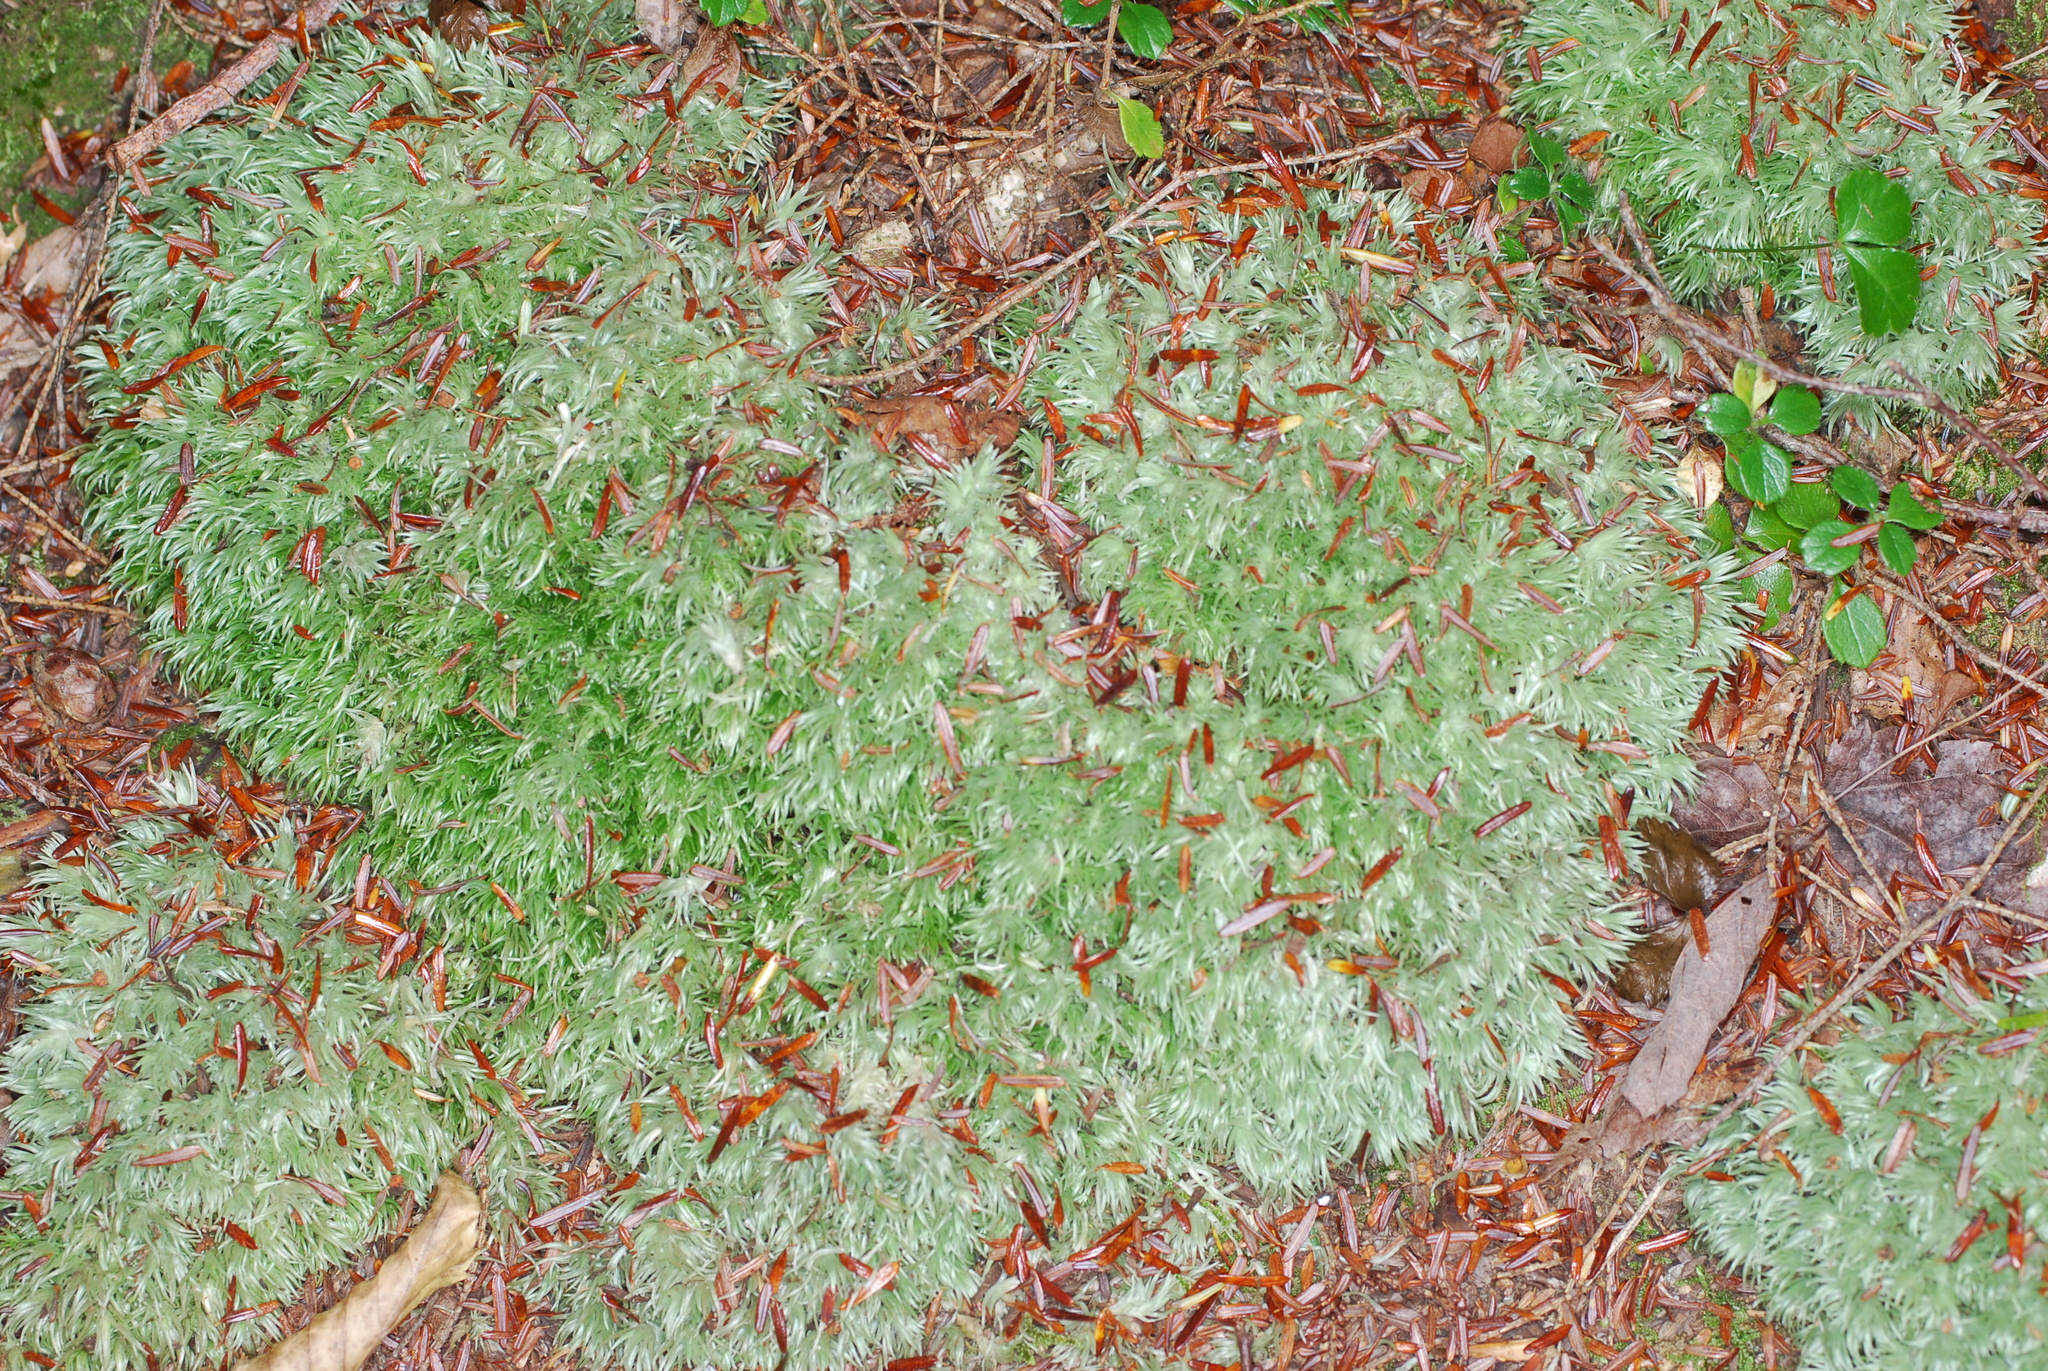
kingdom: Plantae
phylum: Bryophyta
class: Bryopsida
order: Dicranales
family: Leucobryaceae
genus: Leucobryum
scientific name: Leucobryum glaucum
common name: Large white-moss
